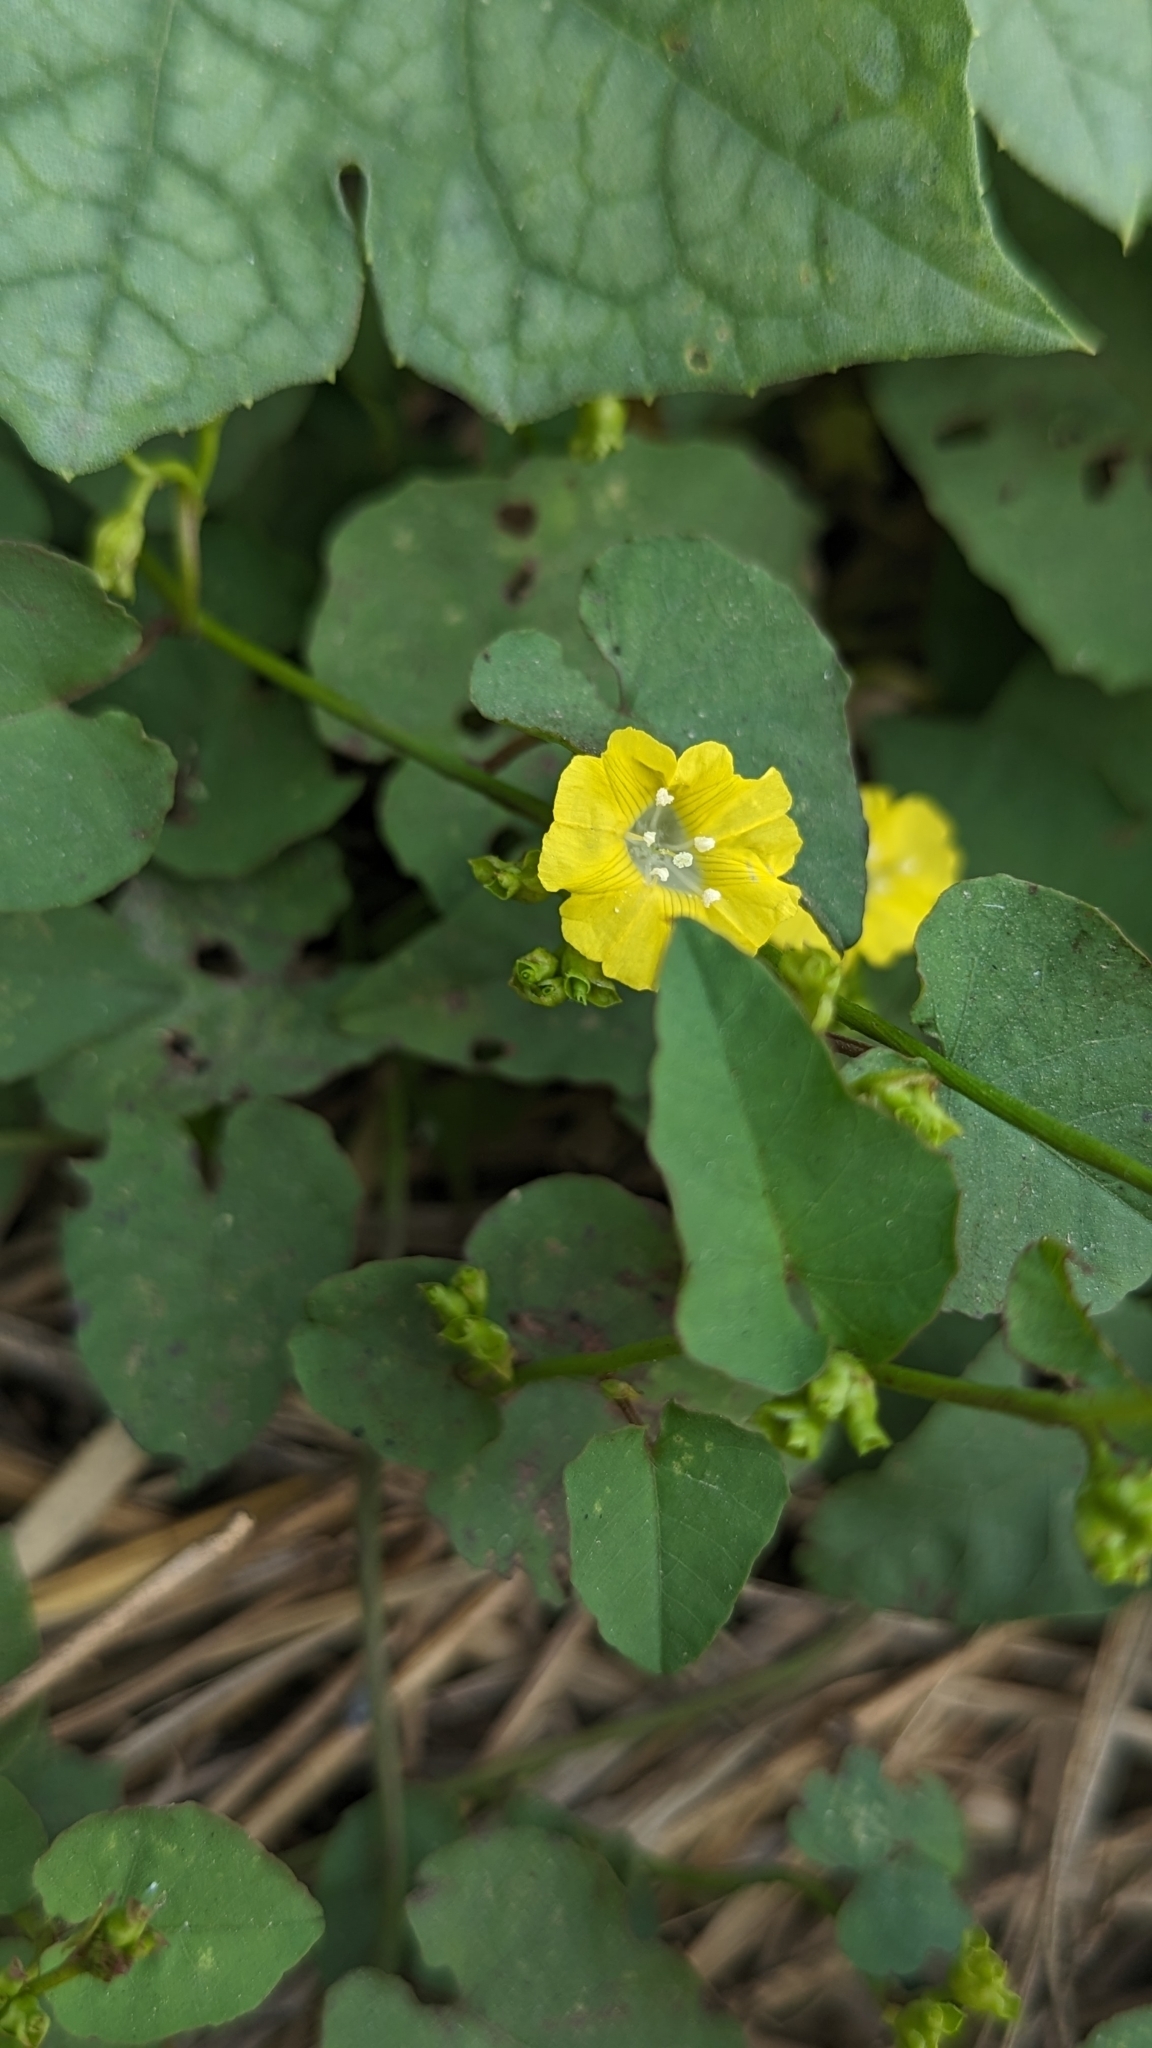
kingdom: Plantae
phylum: Tracheophyta
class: Magnoliopsida
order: Solanales
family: Convolvulaceae
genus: Merremia
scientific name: Merremia hederacea
